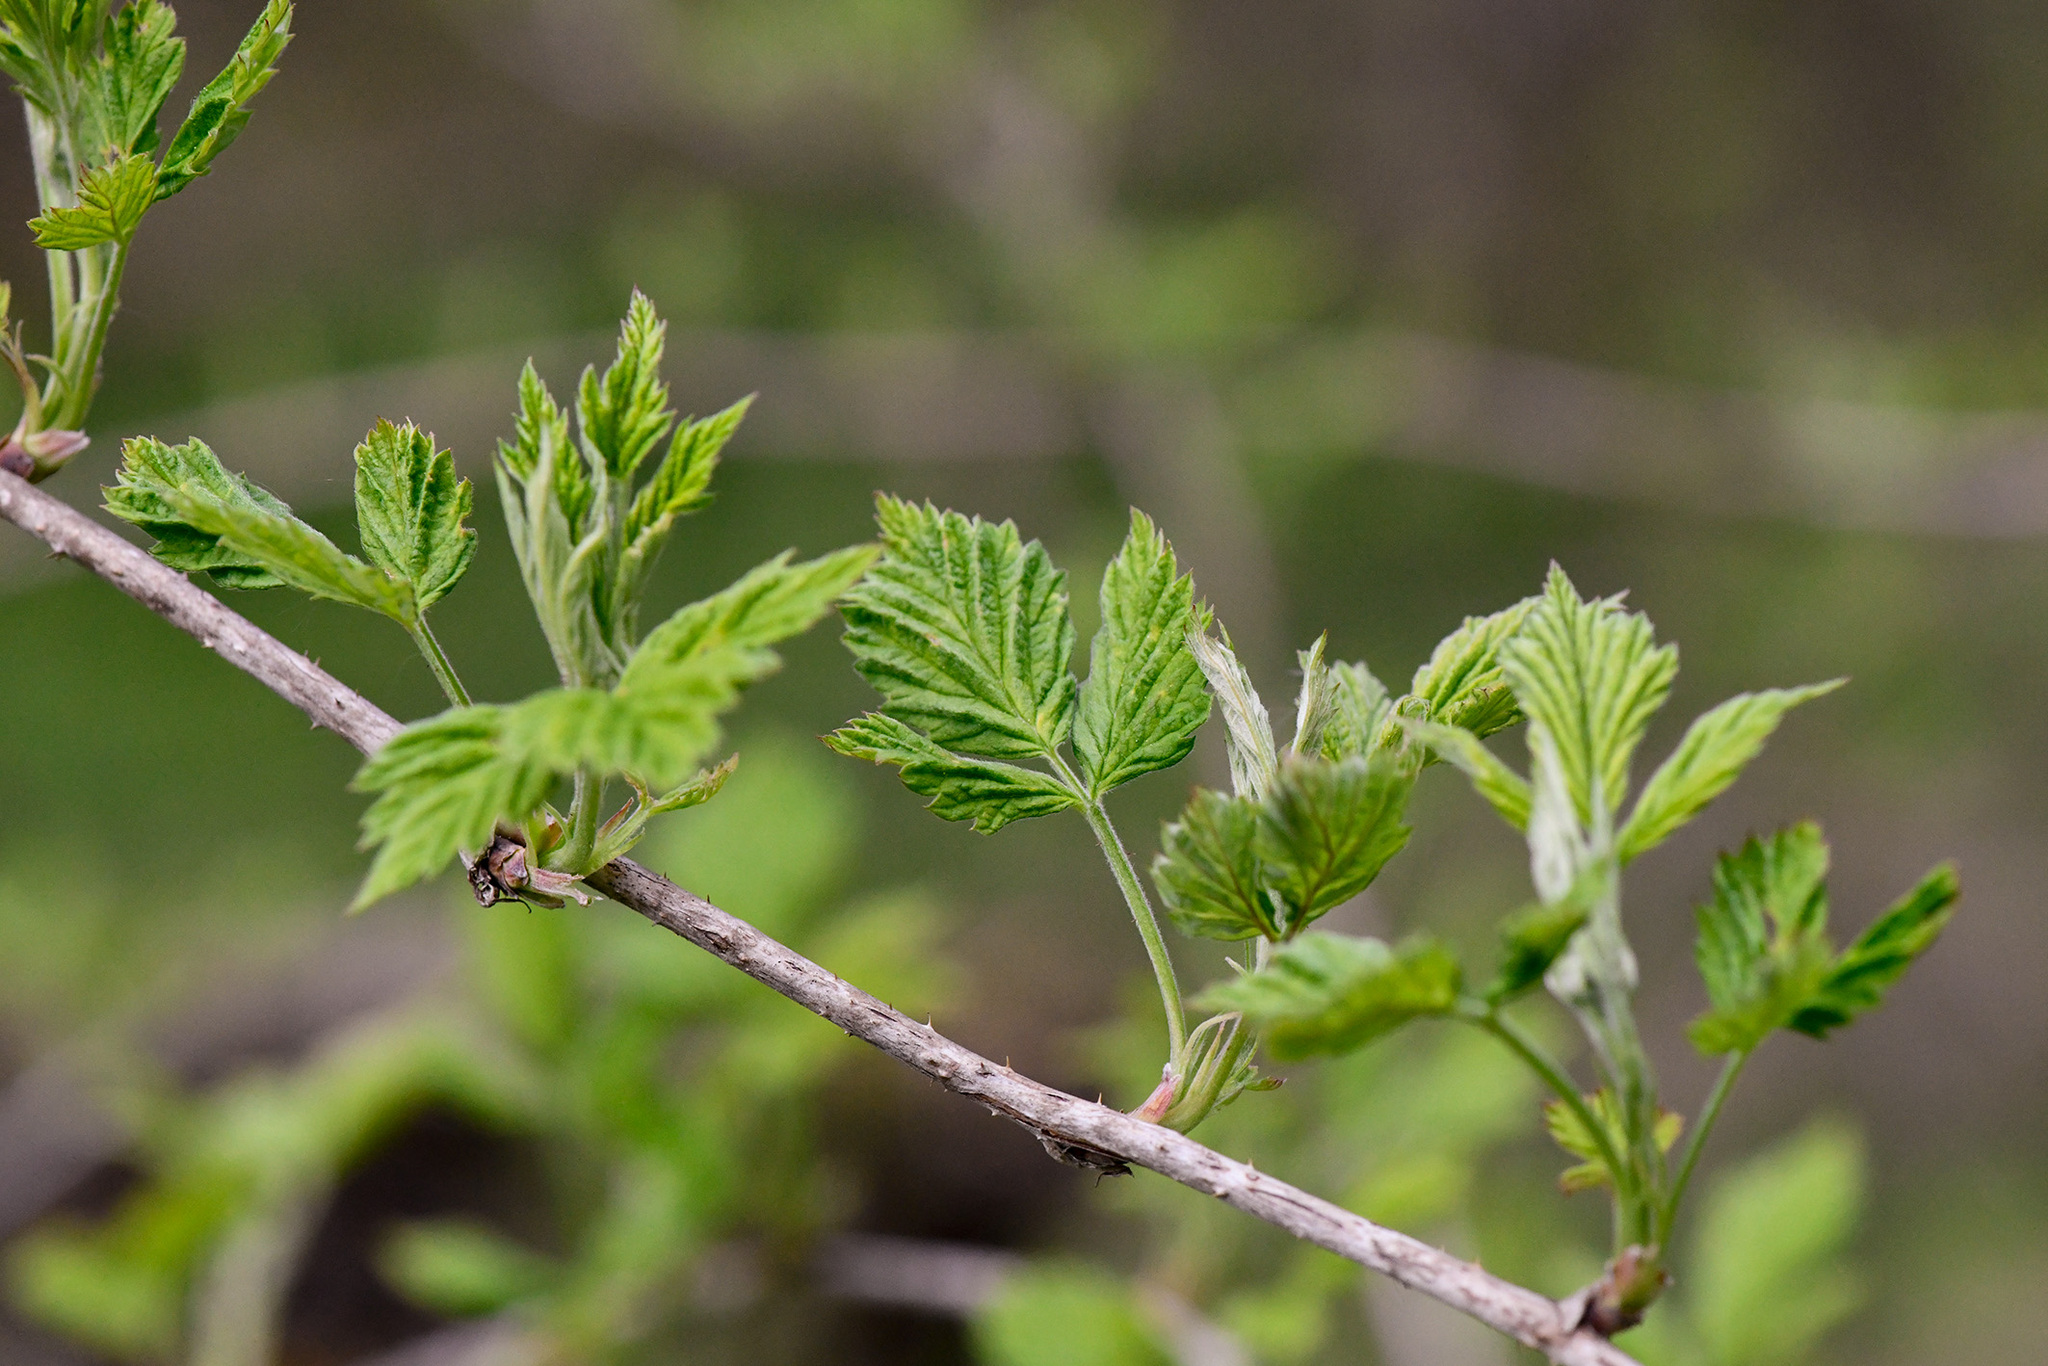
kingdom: Plantae
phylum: Tracheophyta
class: Magnoliopsida
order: Rosales
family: Rosaceae
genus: Rubus
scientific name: Rubus idaeus
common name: Raspberry
